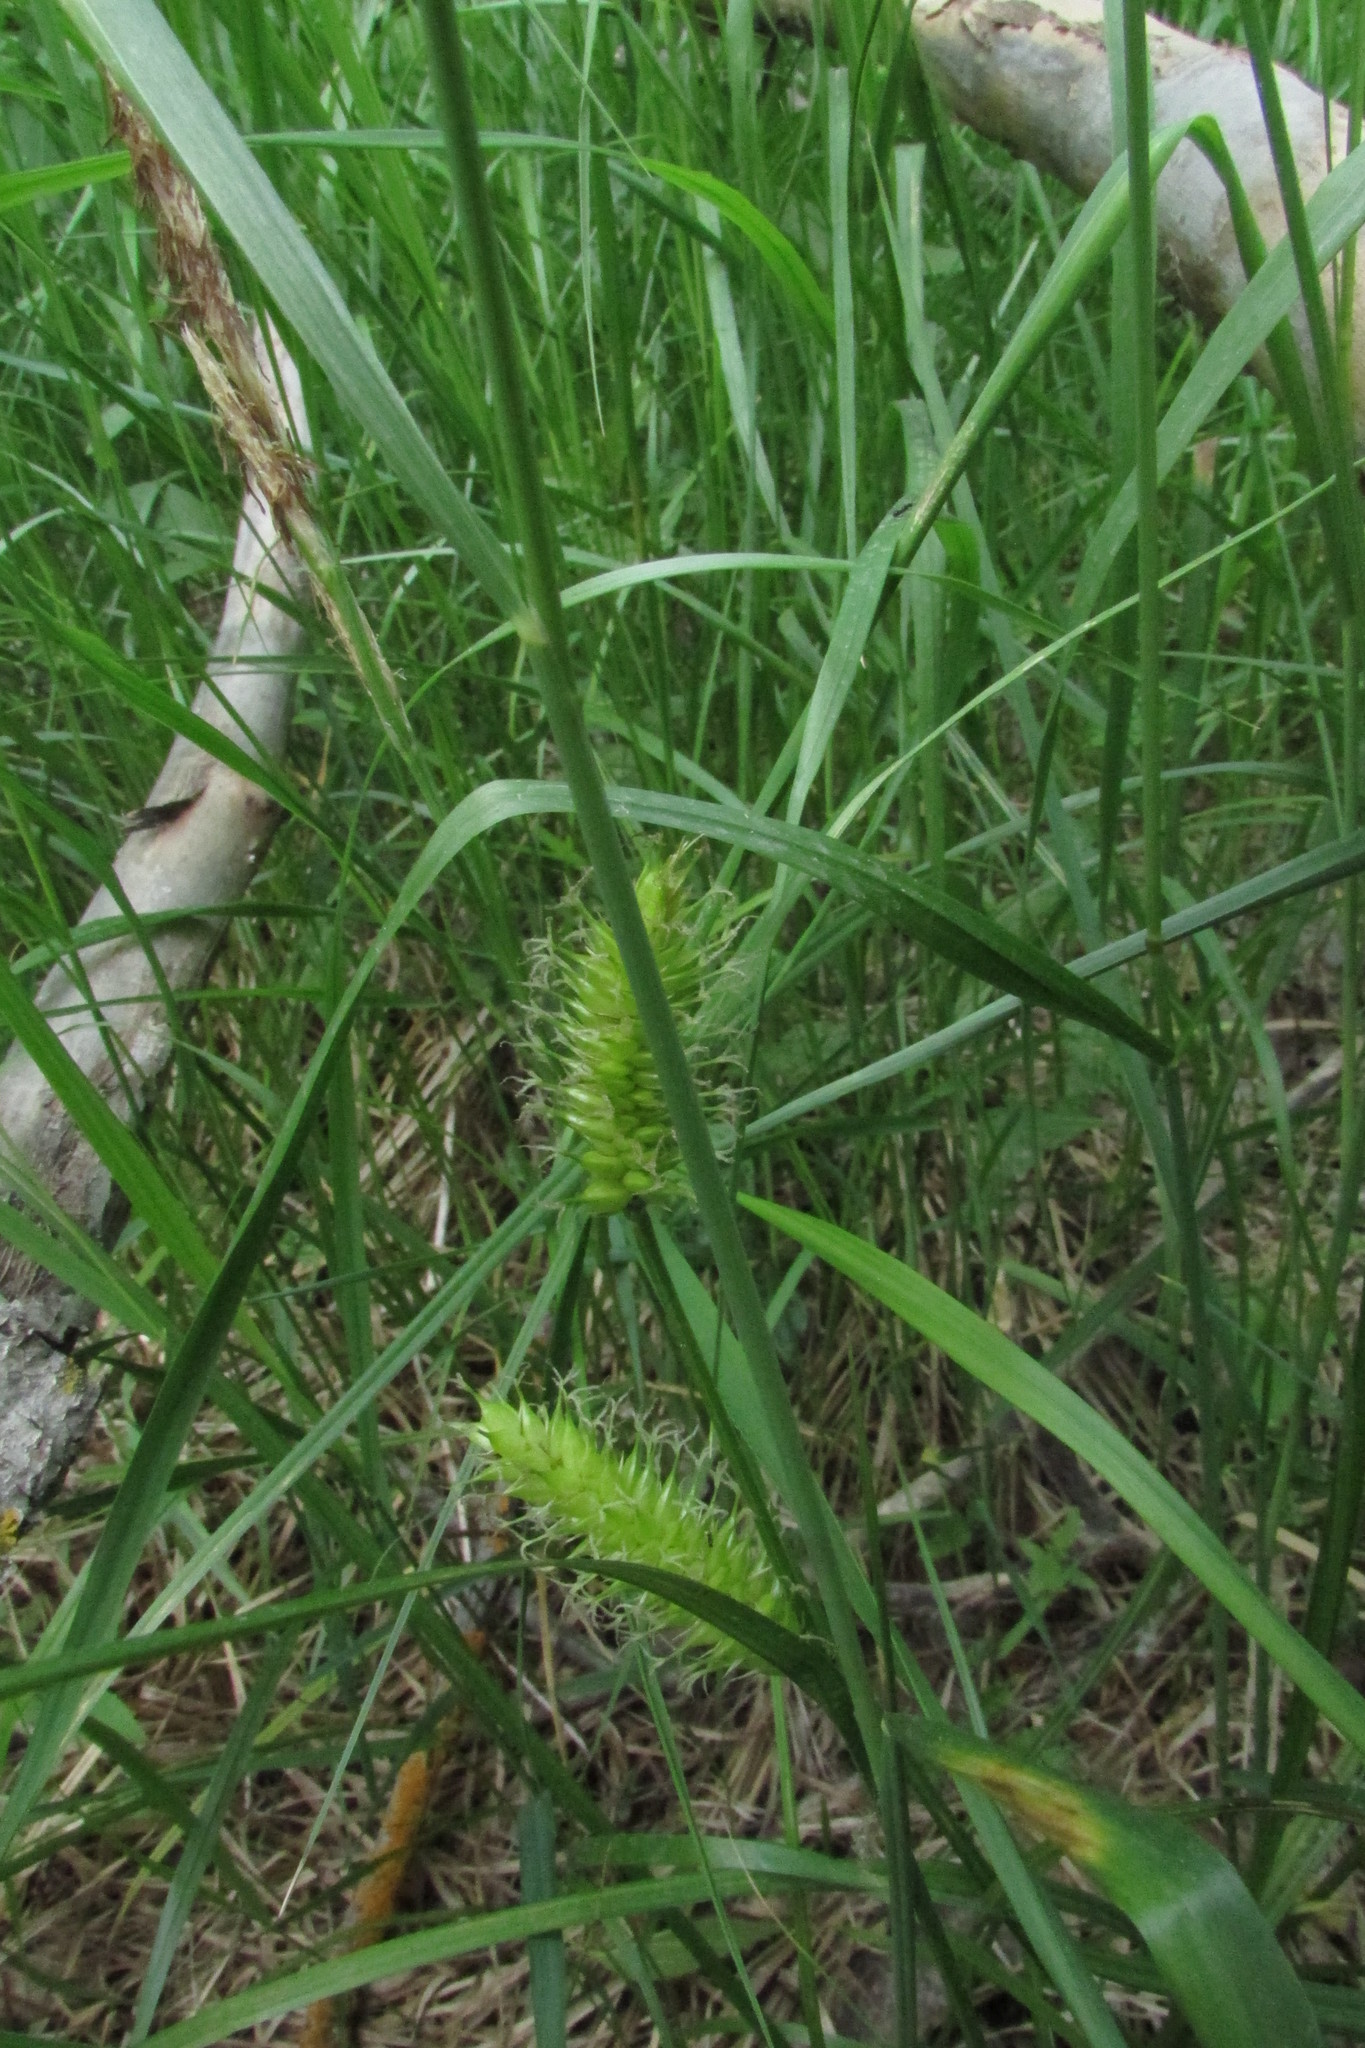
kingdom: Plantae
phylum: Tracheophyta
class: Liliopsida
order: Poales
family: Cyperaceae
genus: Carex
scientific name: Carex vesicaria
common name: Bladder-sedge
